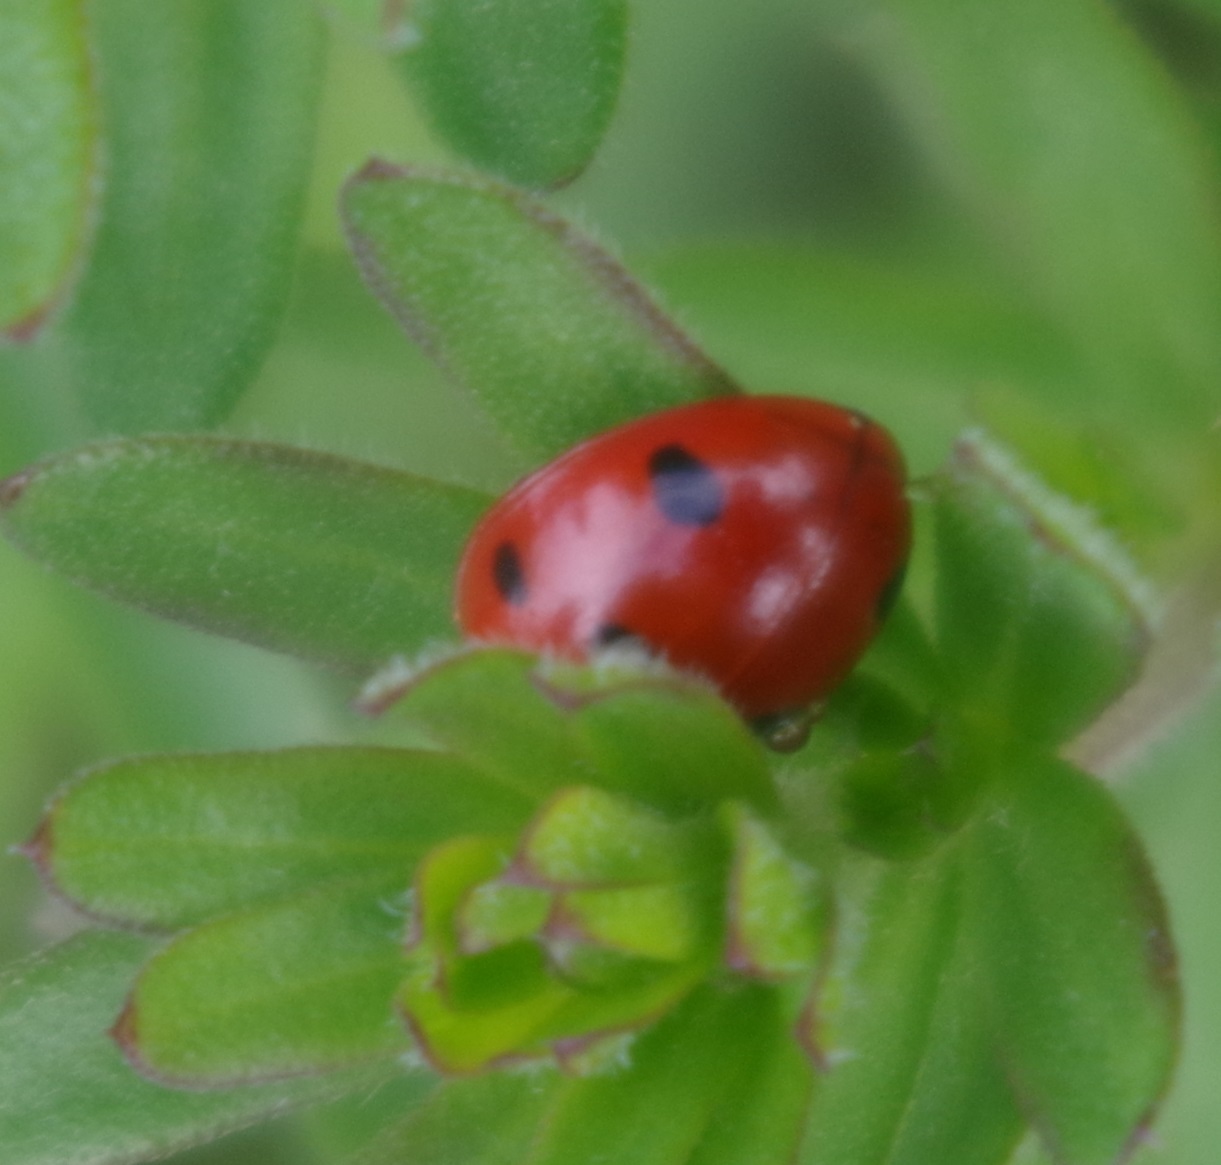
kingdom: Animalia
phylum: Arthropoda
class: Insecta
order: Coleoptera
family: Coccinellidae
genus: Coccinella
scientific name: Coccinella septempunctata
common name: Sevenspotted lady beetle
